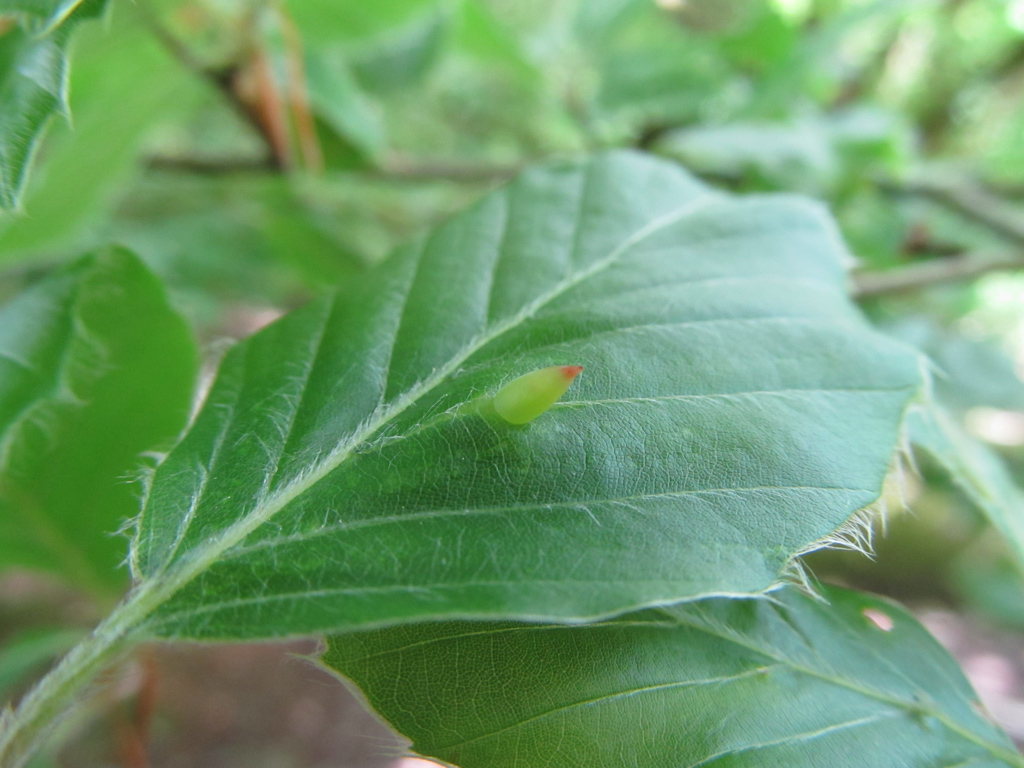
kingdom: Animalia
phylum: Arthropoda
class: Insecta
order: Diptera
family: Cecidomyiidae
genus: Mikiola
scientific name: Mikiola fagi
